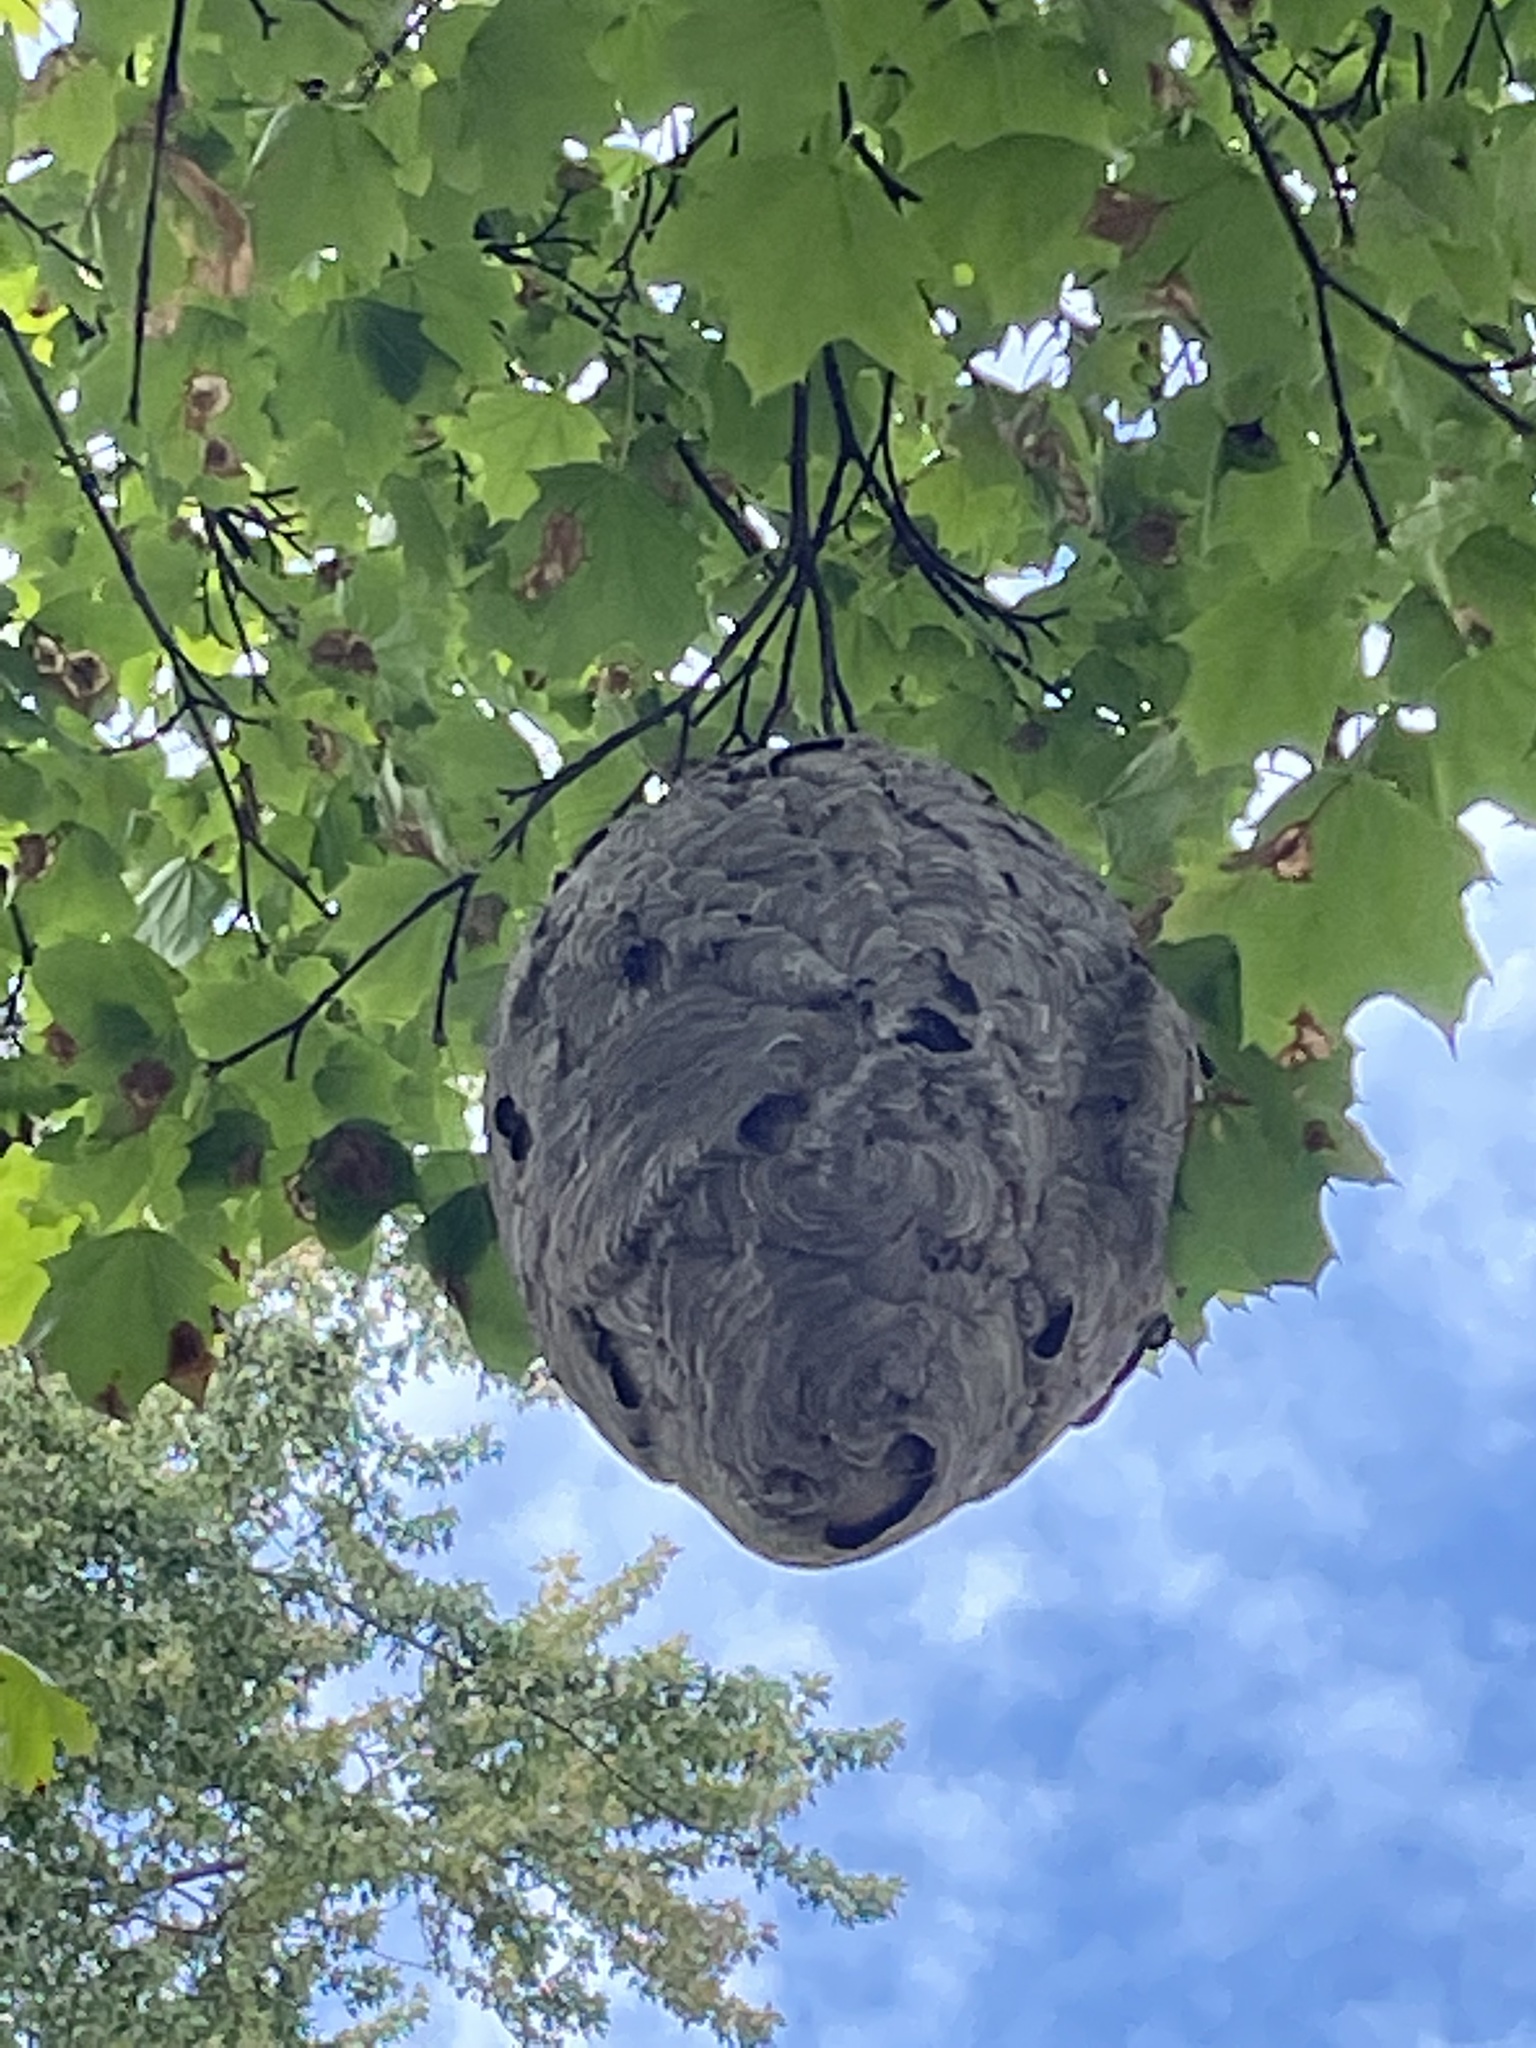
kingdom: Animalia
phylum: Arthropoda
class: Insecta
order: Hymenoptera
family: Vespidae
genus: Dolichovespula
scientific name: Dolichovespula maculata
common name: Bald-faced hornet
